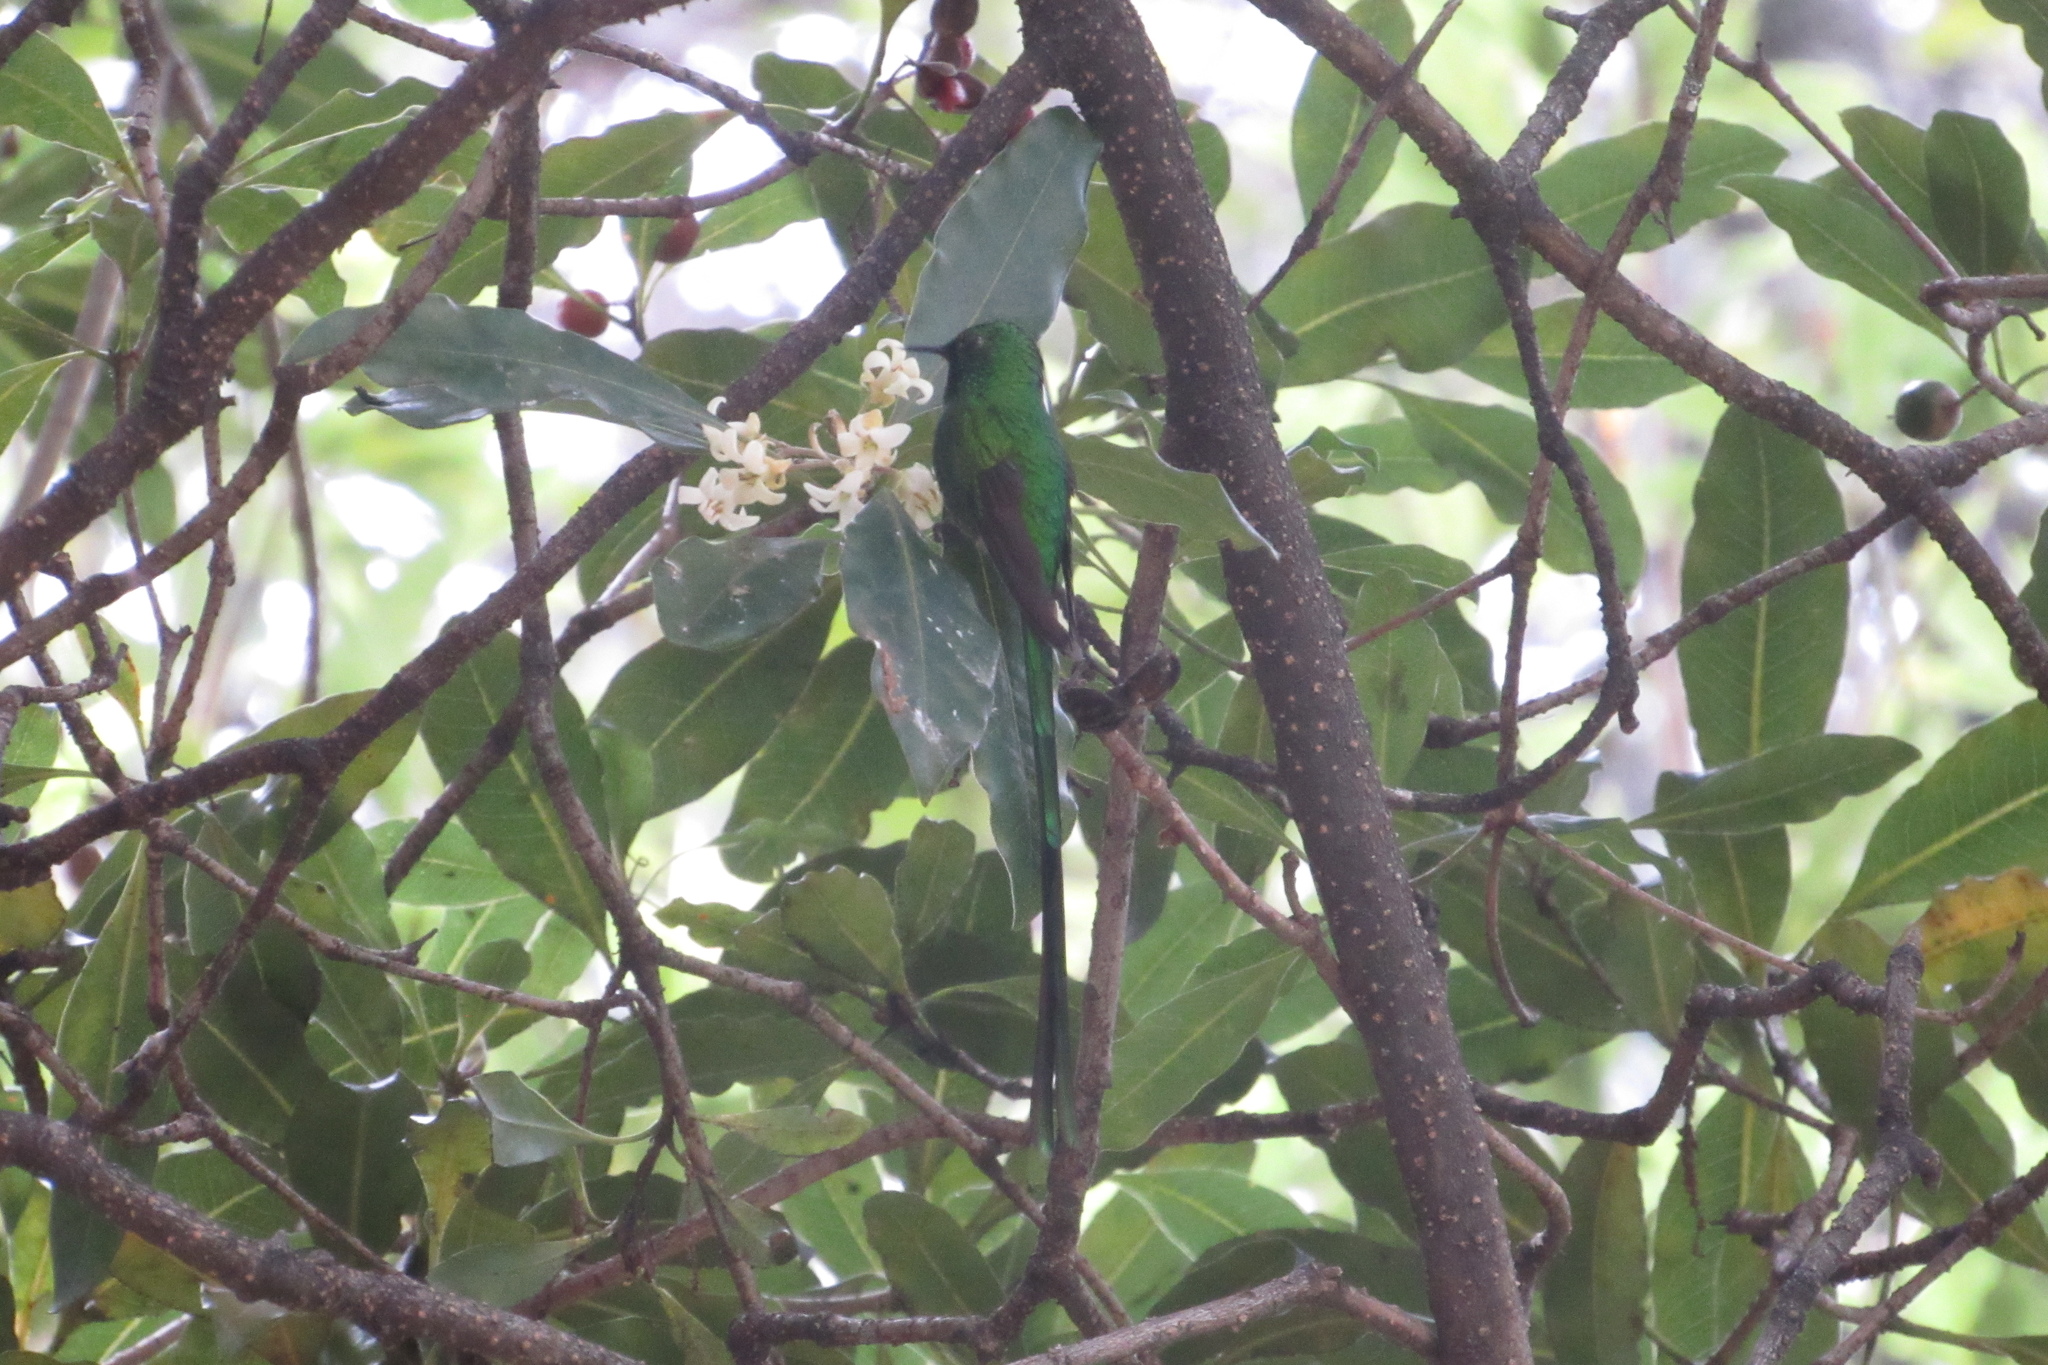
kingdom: Animalia
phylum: Chordata
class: Aves
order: Apodiformes
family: Trochilidae
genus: Lesbia
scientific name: Lesbia nuna
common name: Green-tailed trainbearer
